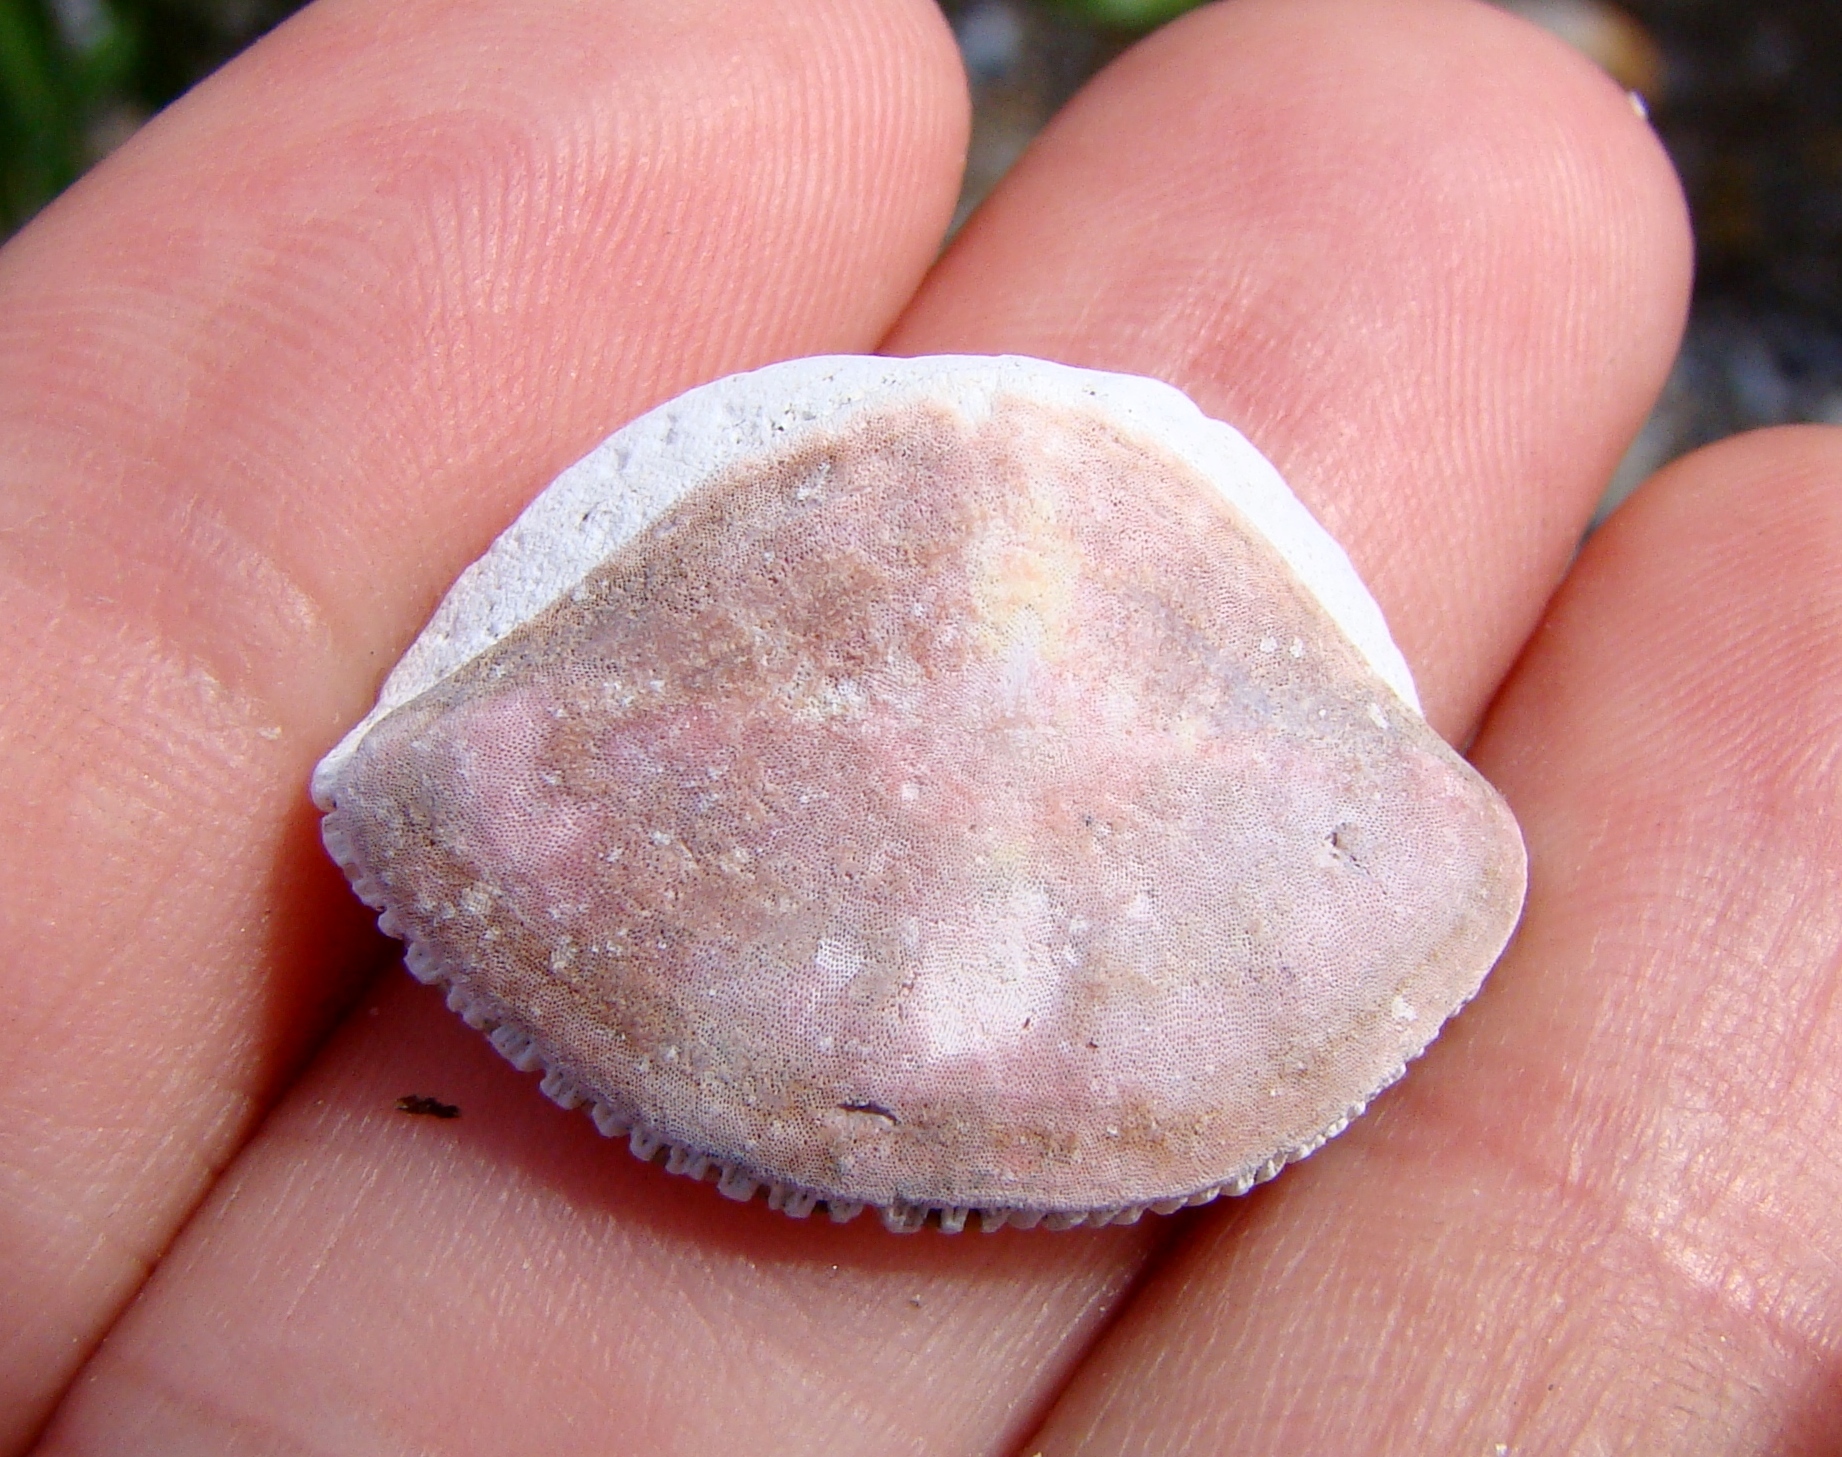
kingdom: Animalia
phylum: Mollusca
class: Polyplacophora
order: Callochitonida
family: Callochitonidae
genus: Eudoxochiton
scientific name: Eudoxochiton nobilis
